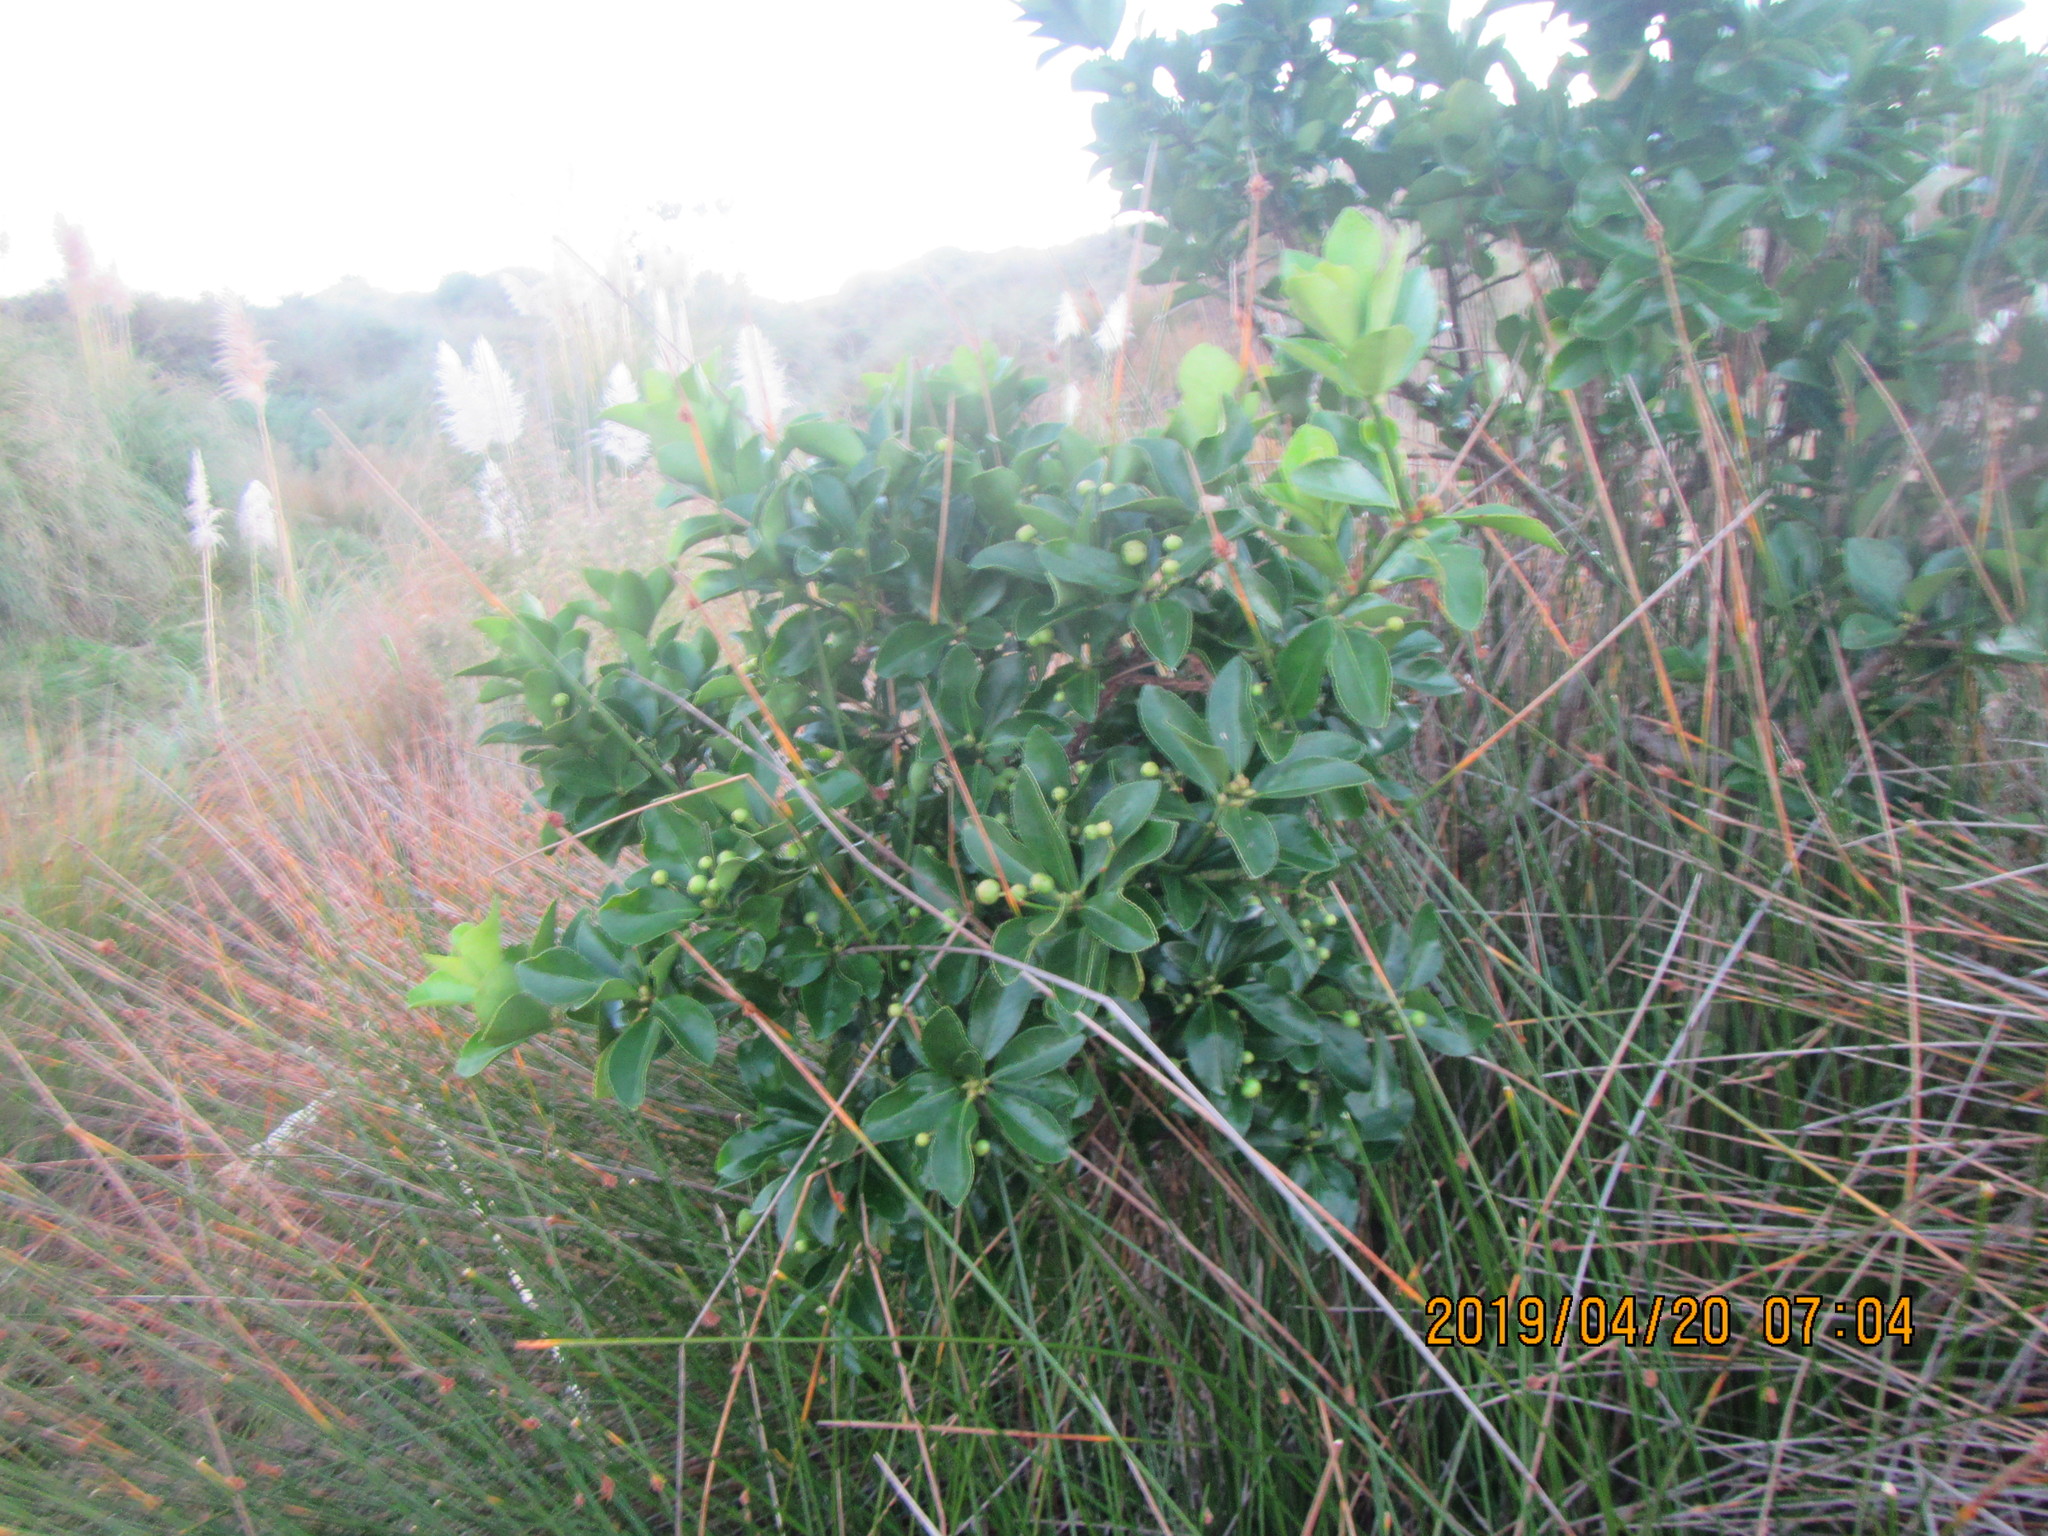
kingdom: Plantae
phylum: Tracheophyta
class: Magnoliopsida
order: Celastrales
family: Celastraceae
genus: Euonymus
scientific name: Euonymus japonicus
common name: Japanese spindletree
